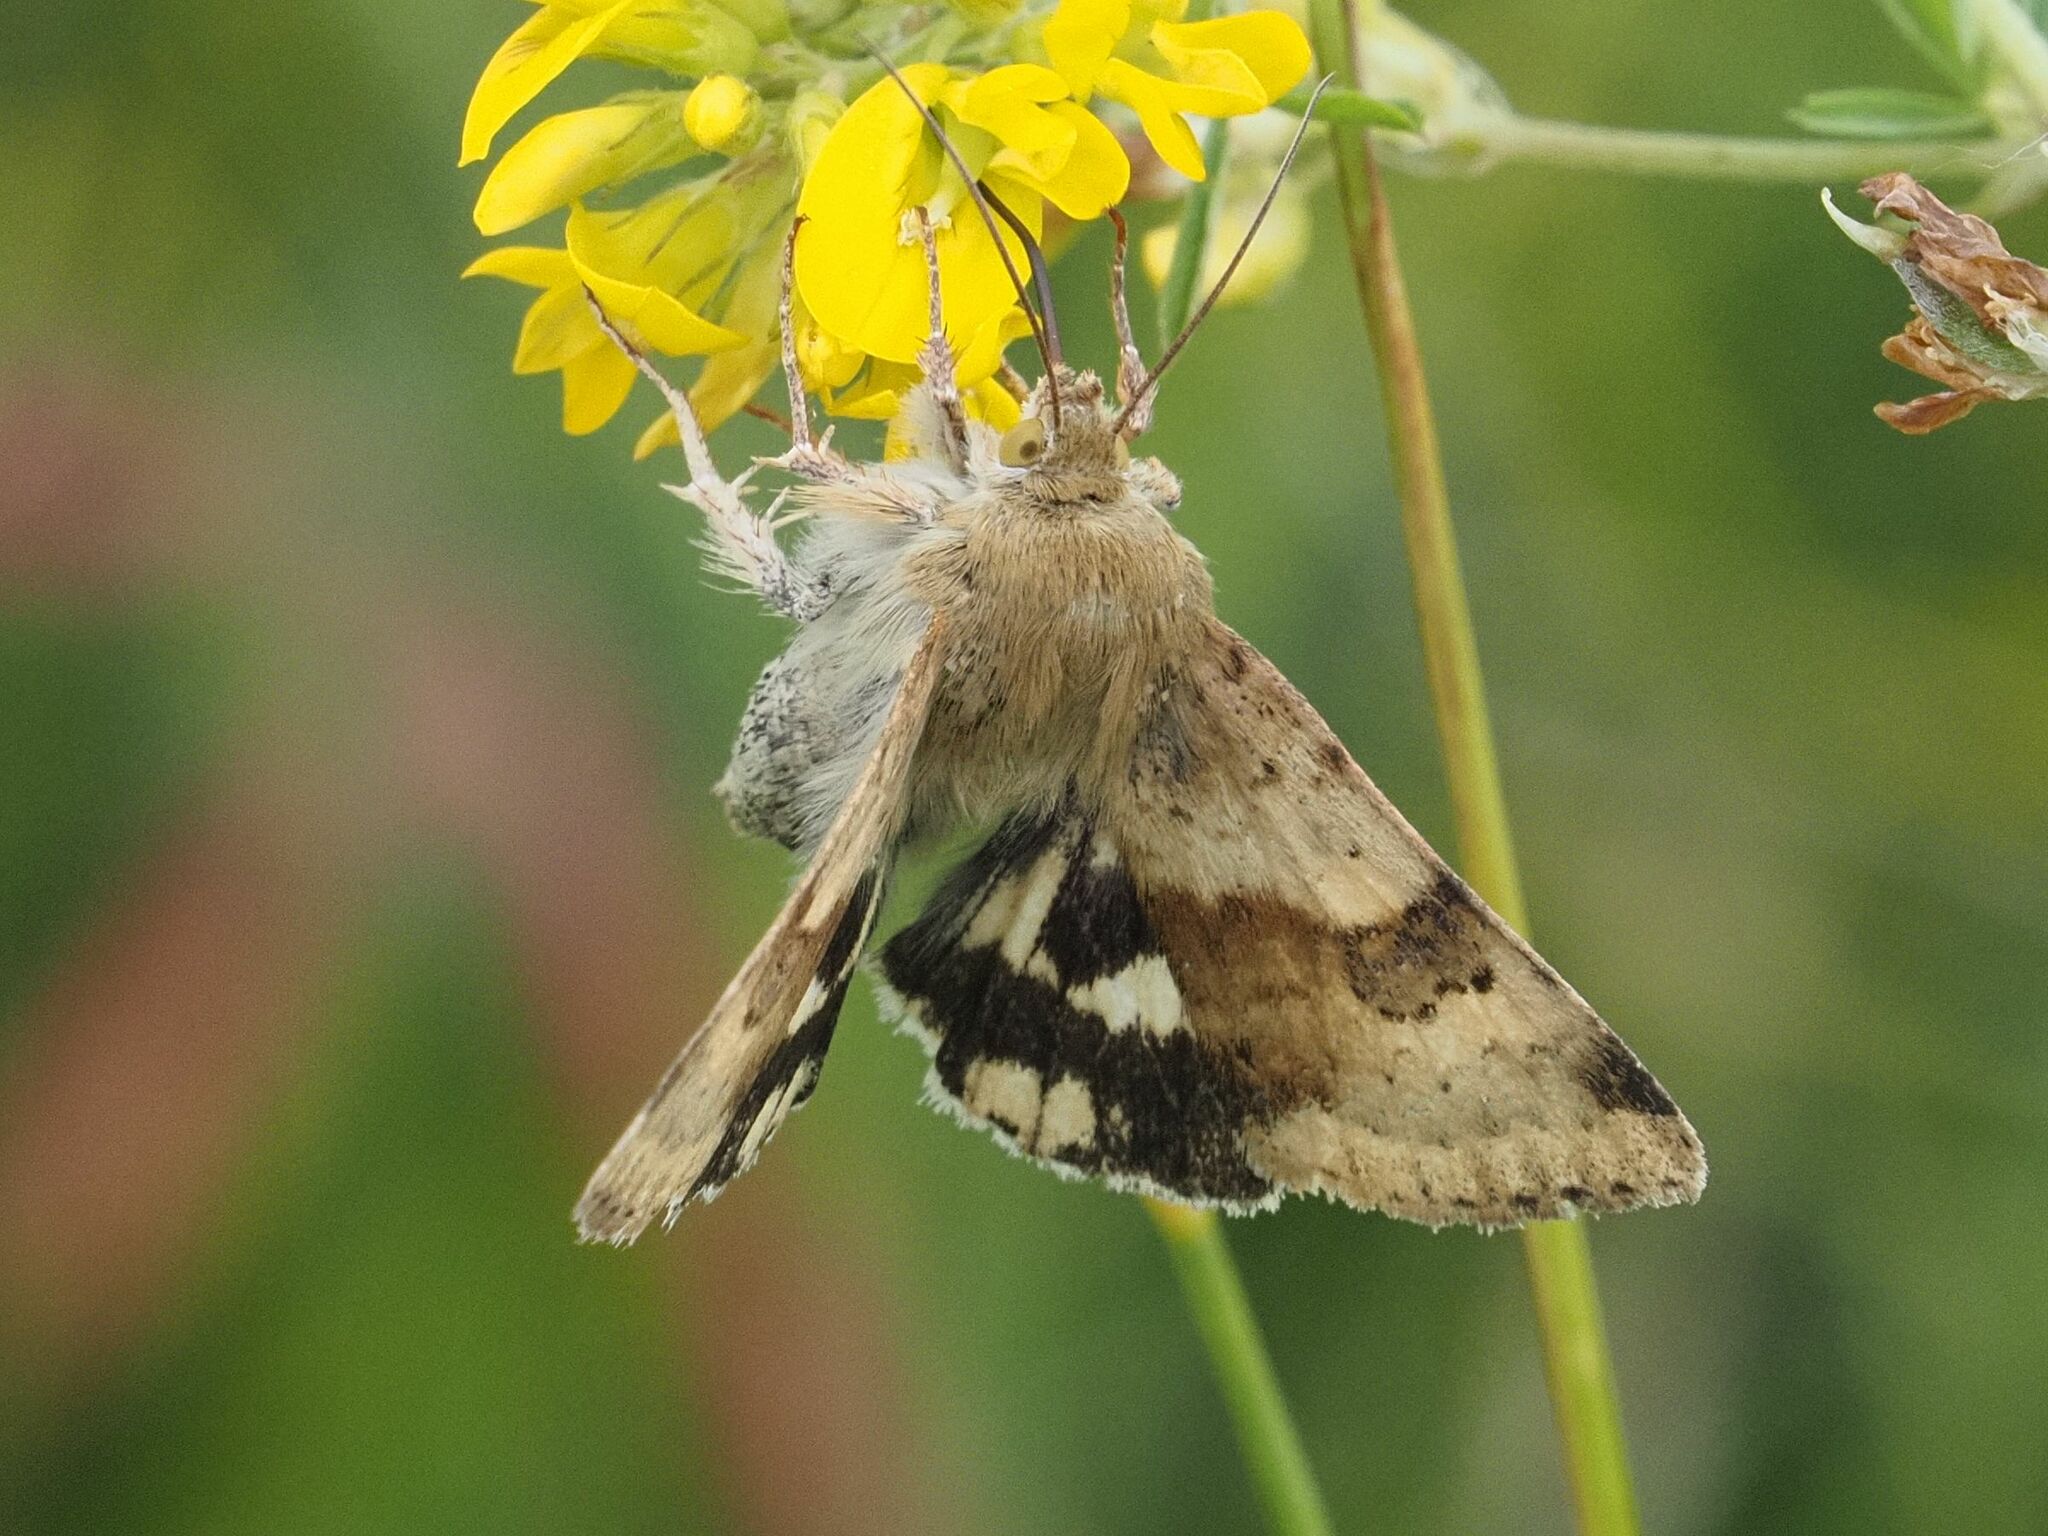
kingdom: Animalia
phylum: Arthropoda
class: Insecta
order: Lepidoptera
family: Noctuidae
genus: Heliothis
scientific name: Heliothis viriplaca
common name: Marbled clover
